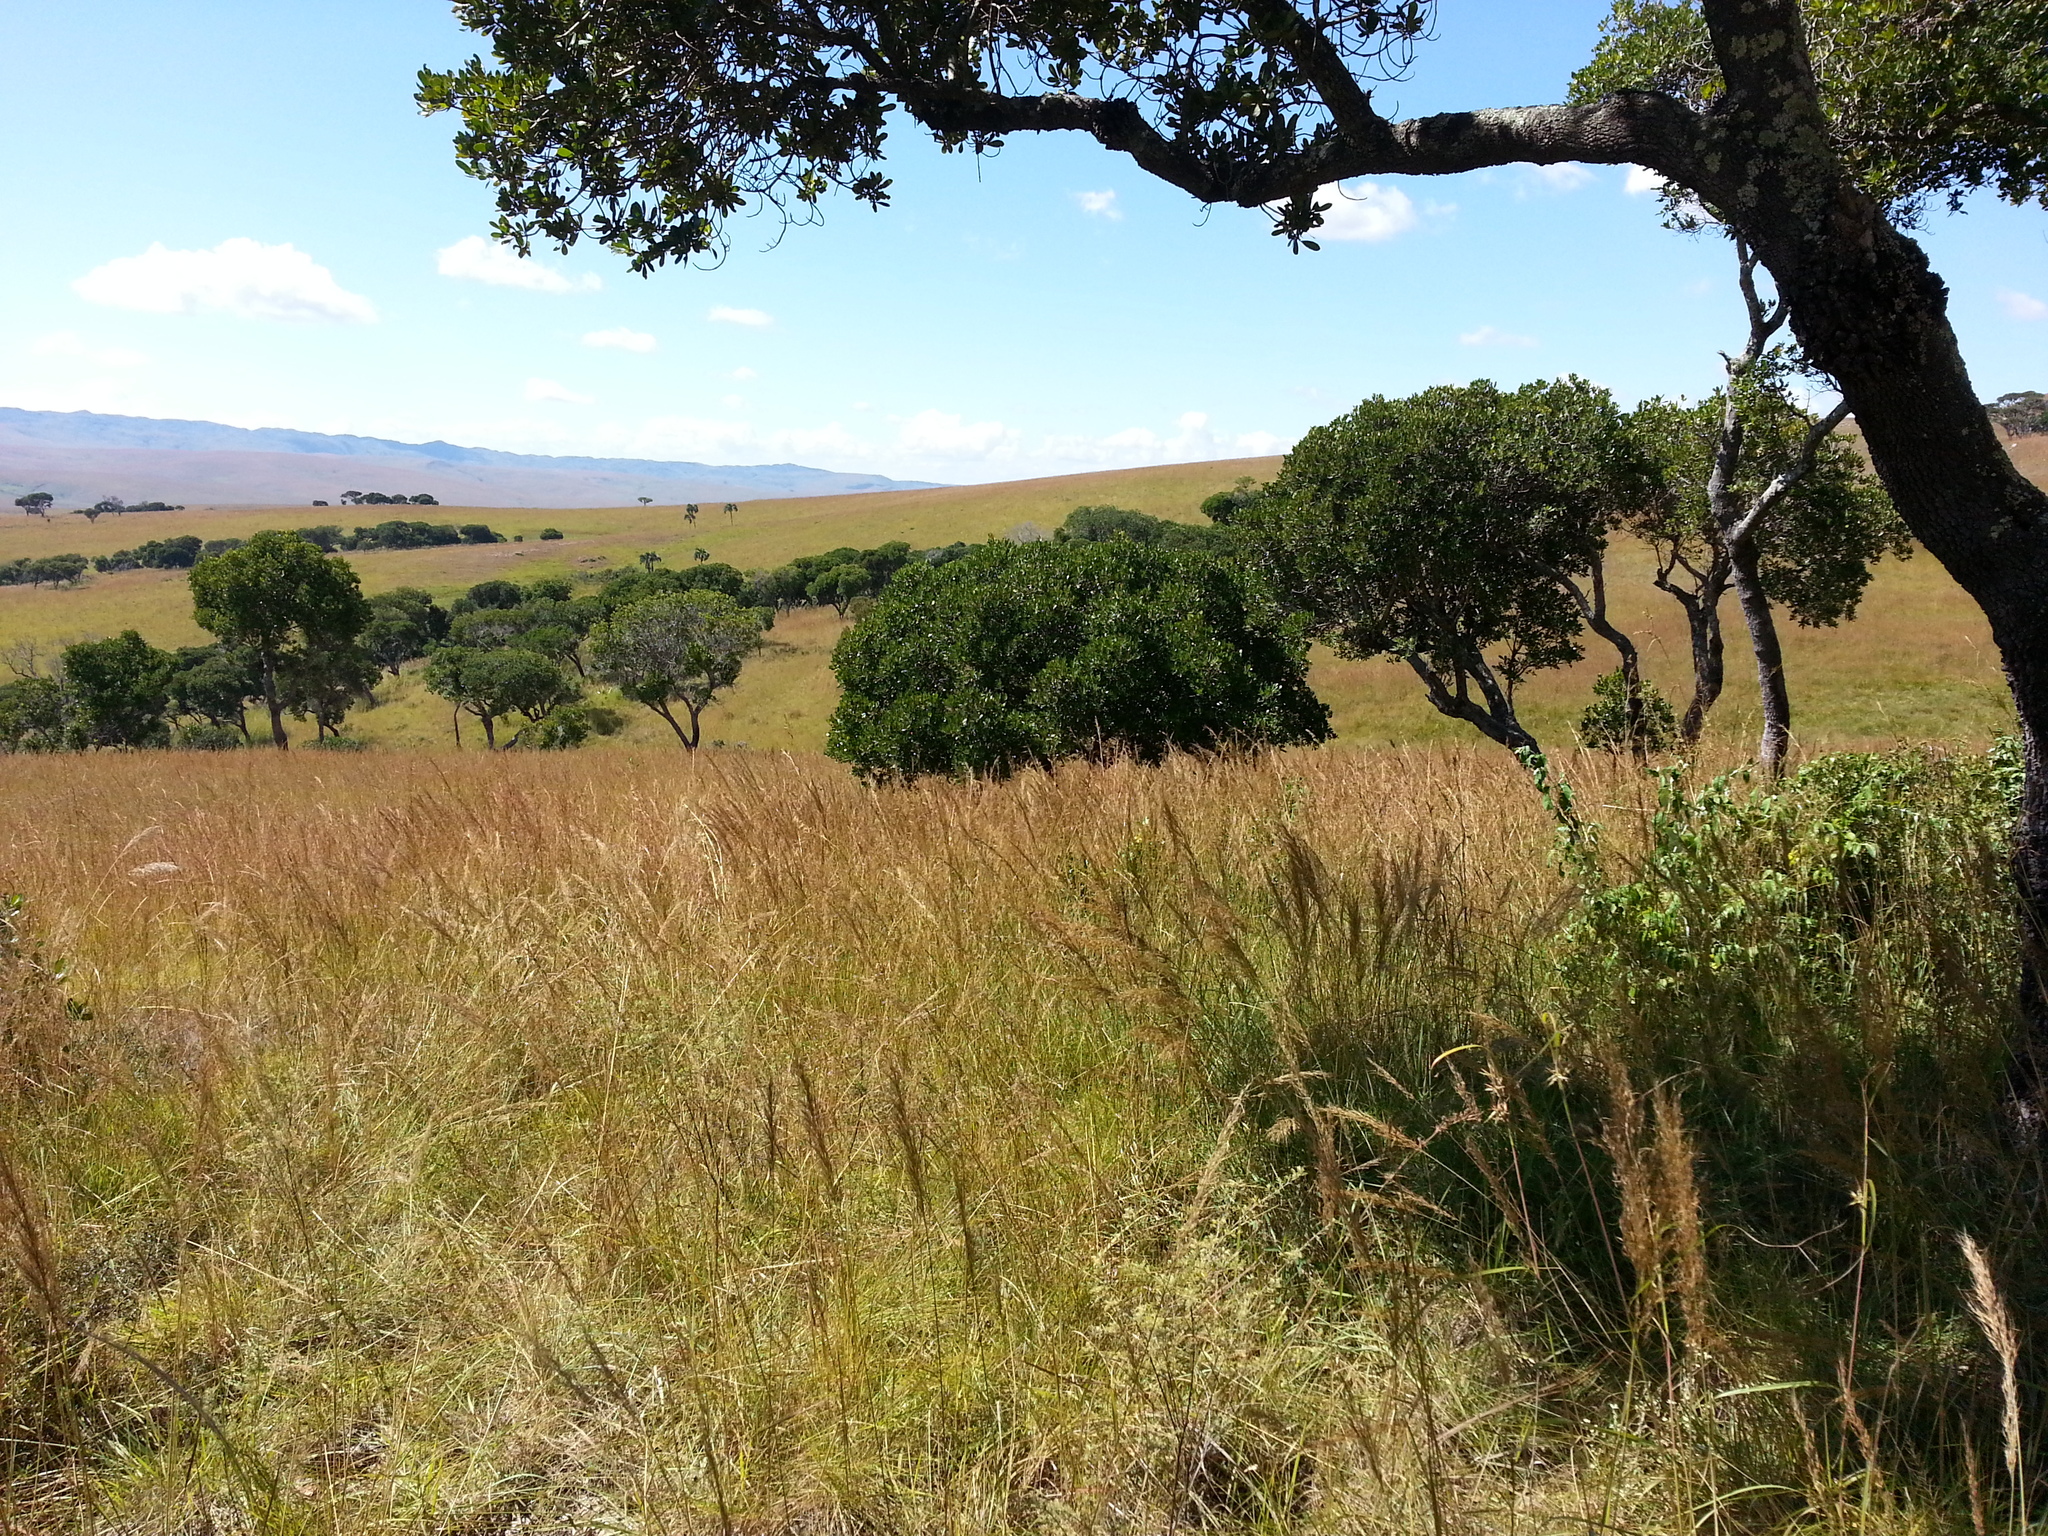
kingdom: Plantae
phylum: Tracheophyta
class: Liliopsida
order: Poales
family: Poaceae
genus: Loudetia
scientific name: Loudetia simplex
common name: Common russet grass
